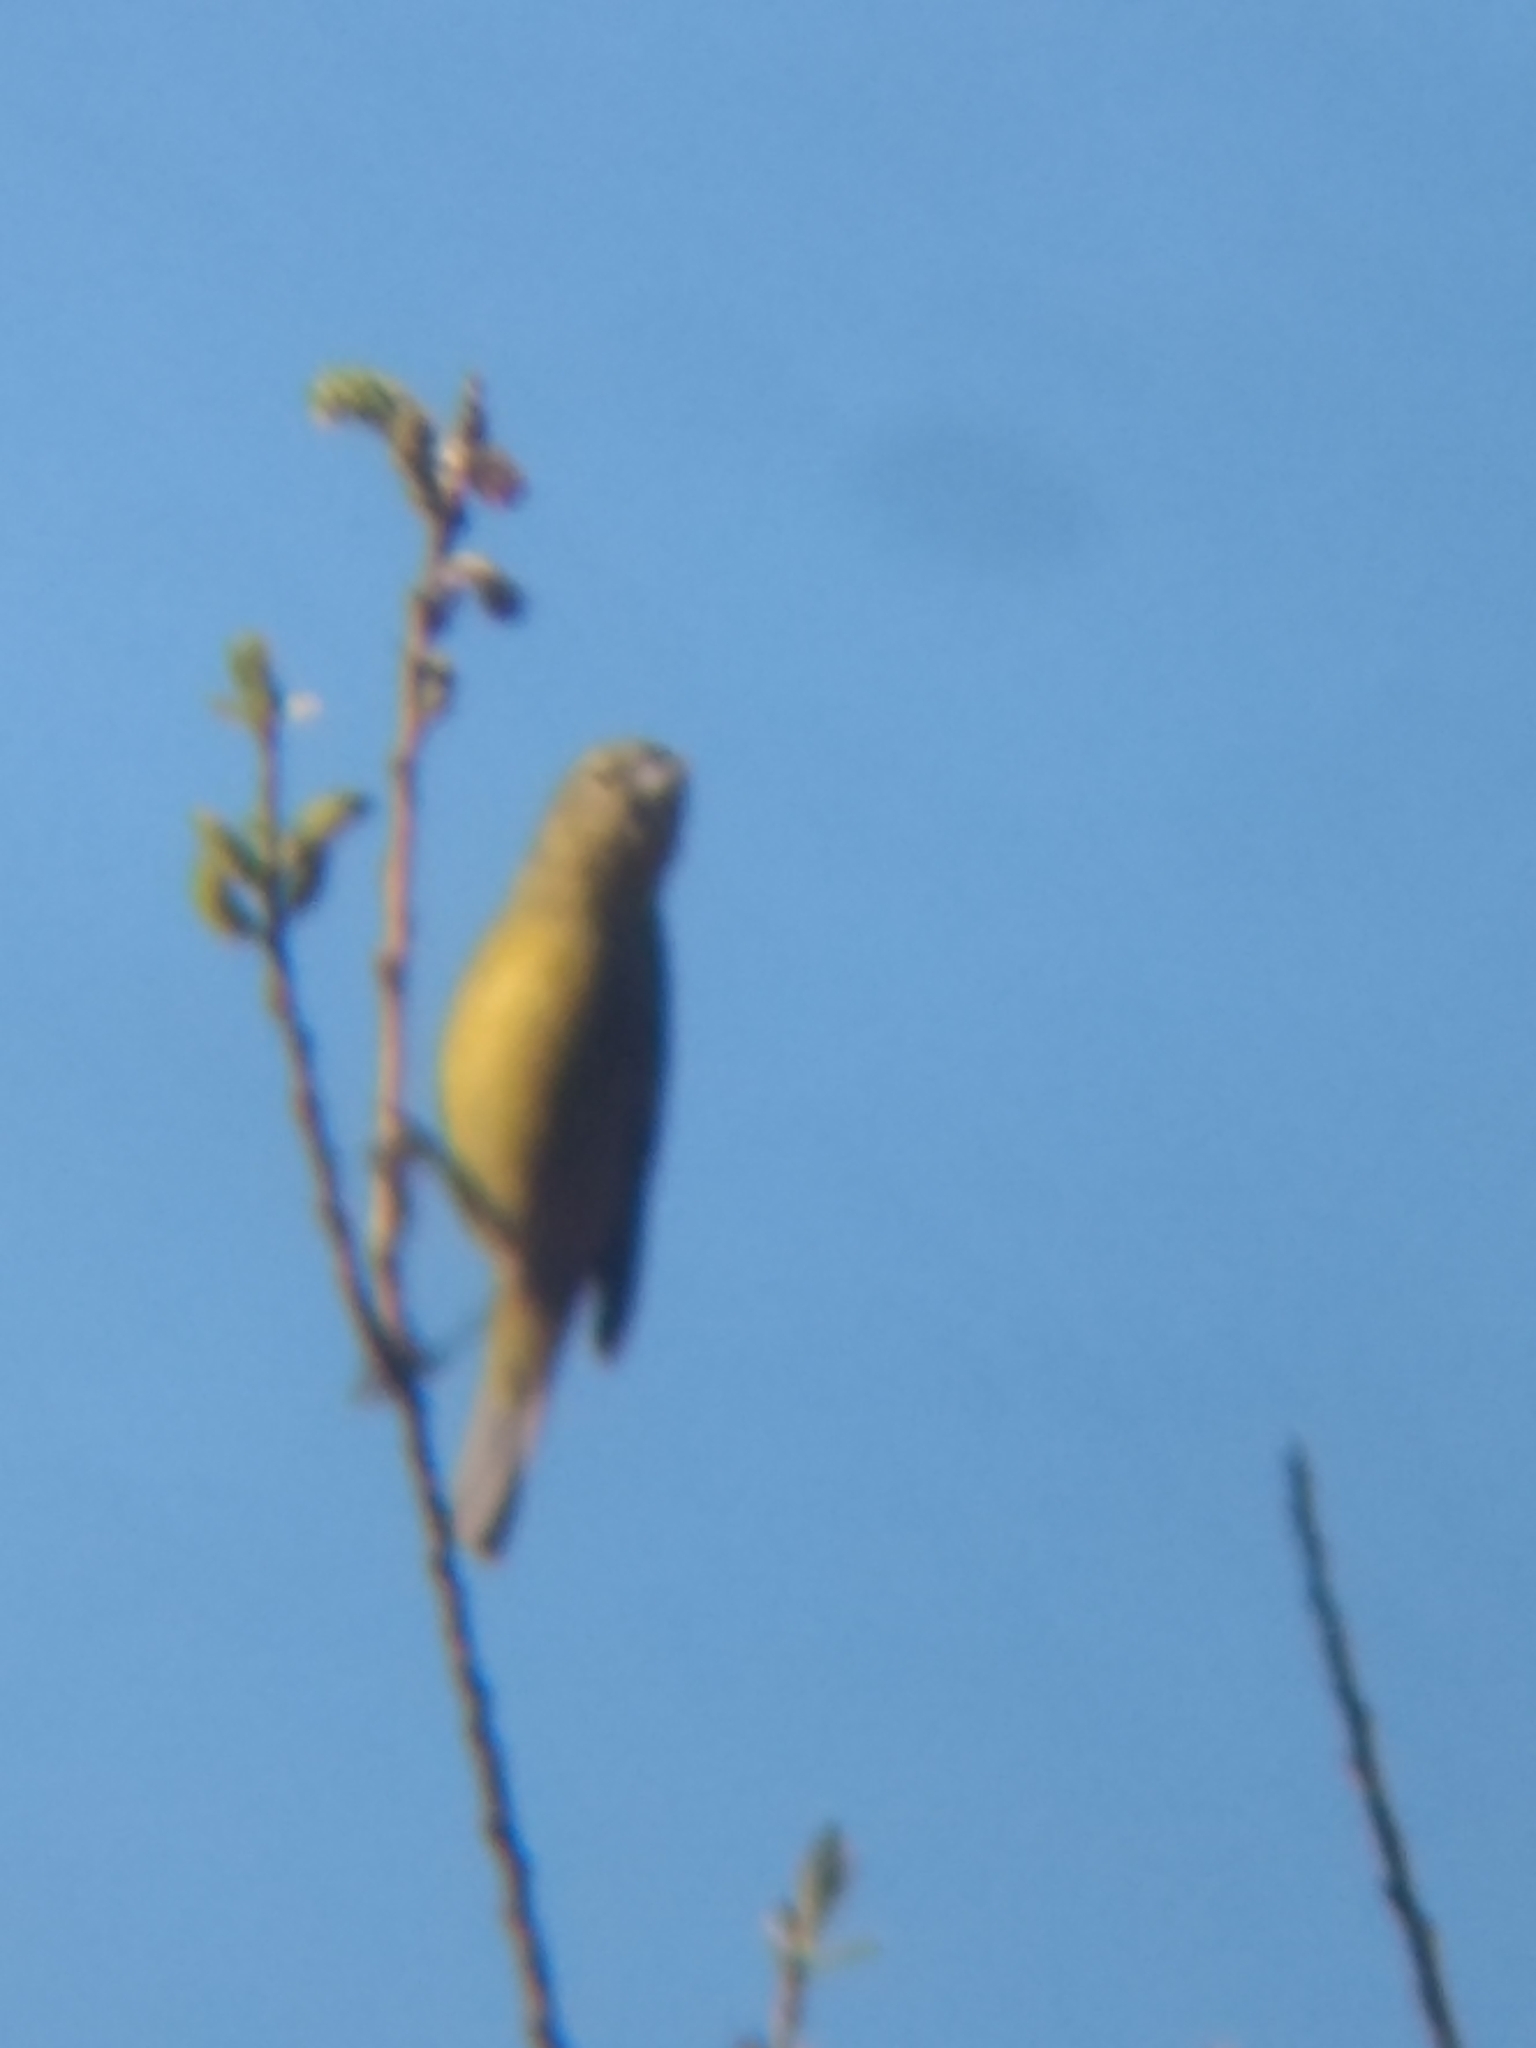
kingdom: Animalia
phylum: Chordata
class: Aves
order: Passeriformes
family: Parulidae
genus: Leiothlypis
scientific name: Leiothlypis celata
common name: Orange-crowned warbler
